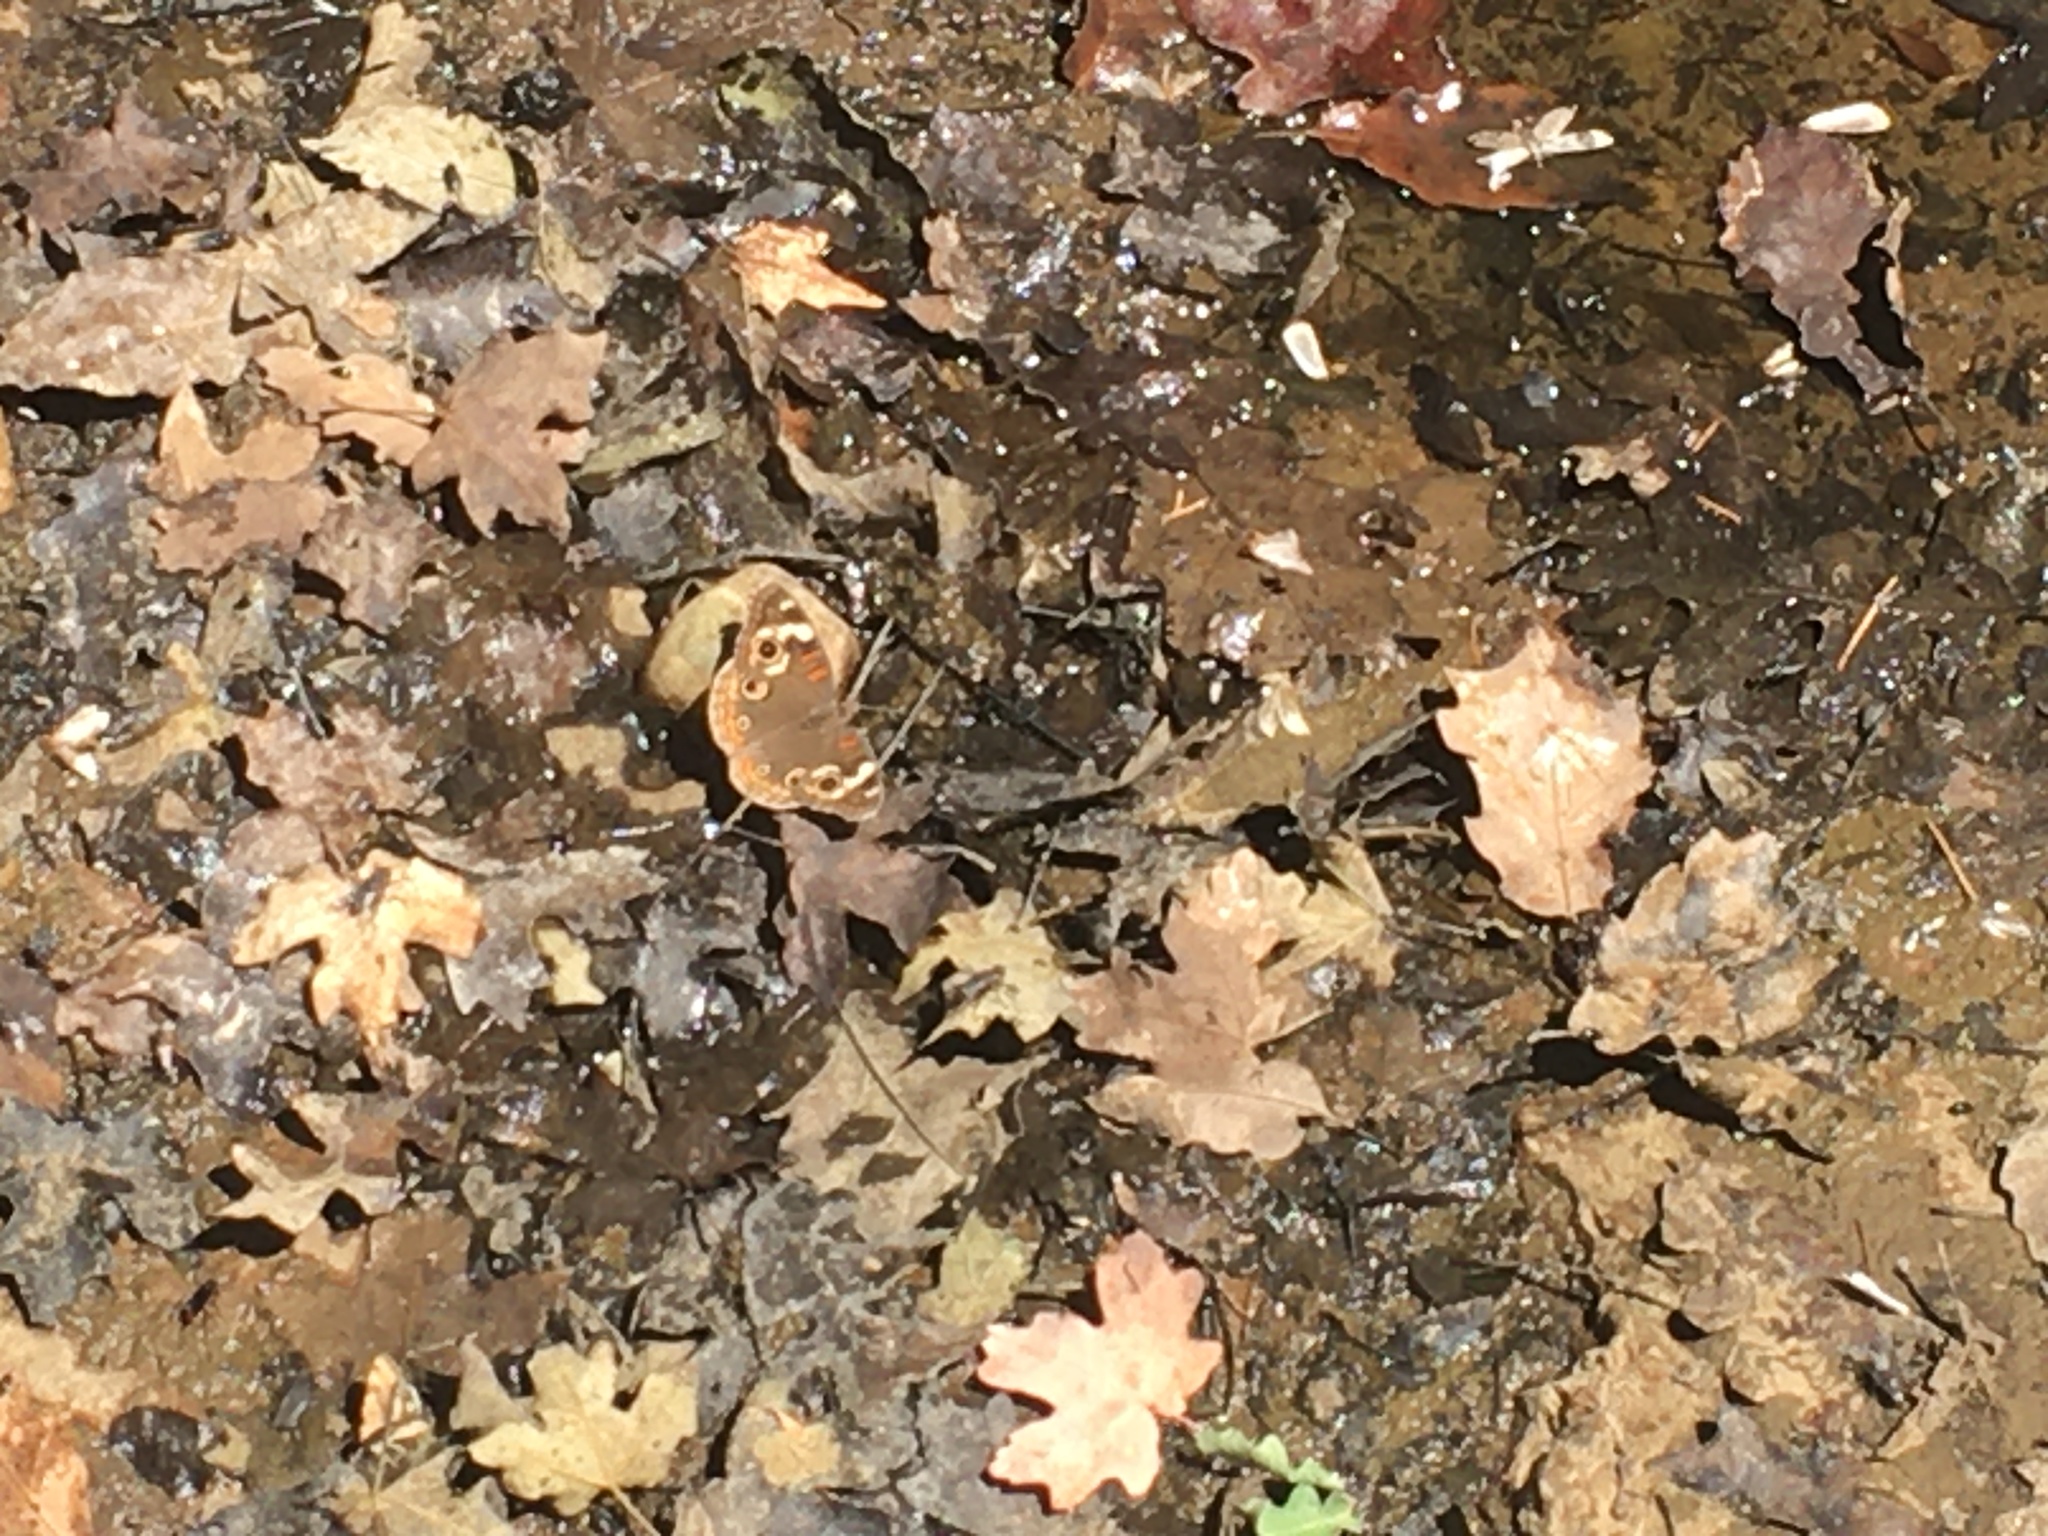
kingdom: Animalia
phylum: Arthropoda
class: Insecta
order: Lepidoptera
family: Nymphalidae
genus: Junonia
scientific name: Junonia grisea
